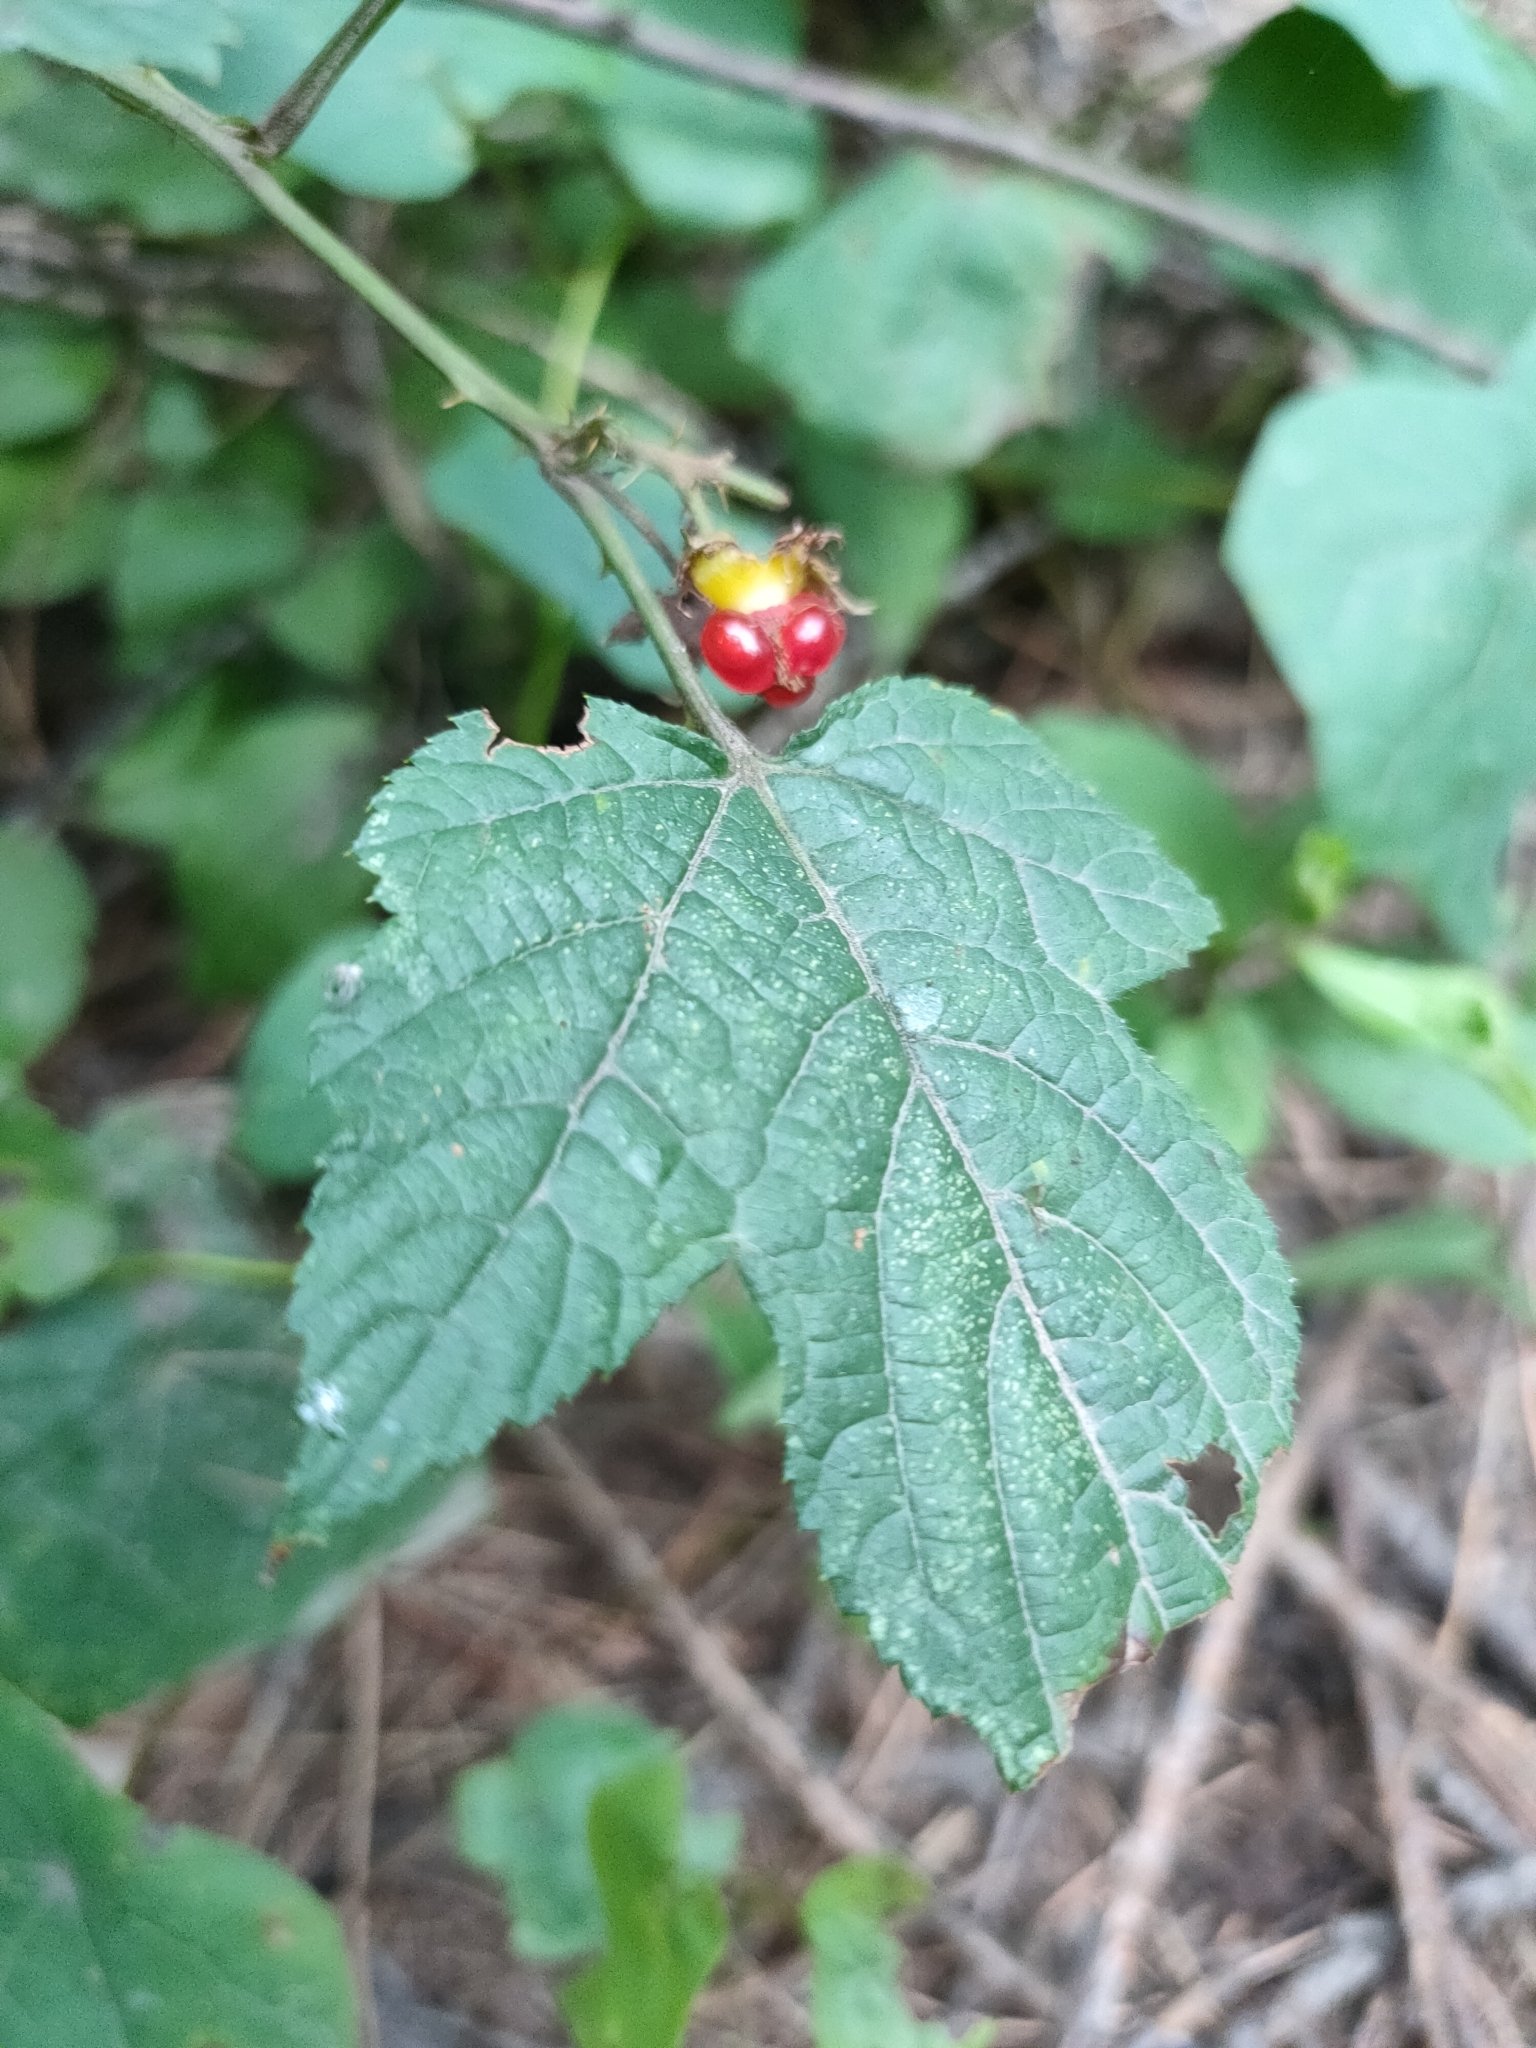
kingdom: Plantae
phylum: Tracheophyta
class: Magnoliopsida
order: Rosales
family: Rosaceae
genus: Rubus
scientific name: Rubus crataegifolius
